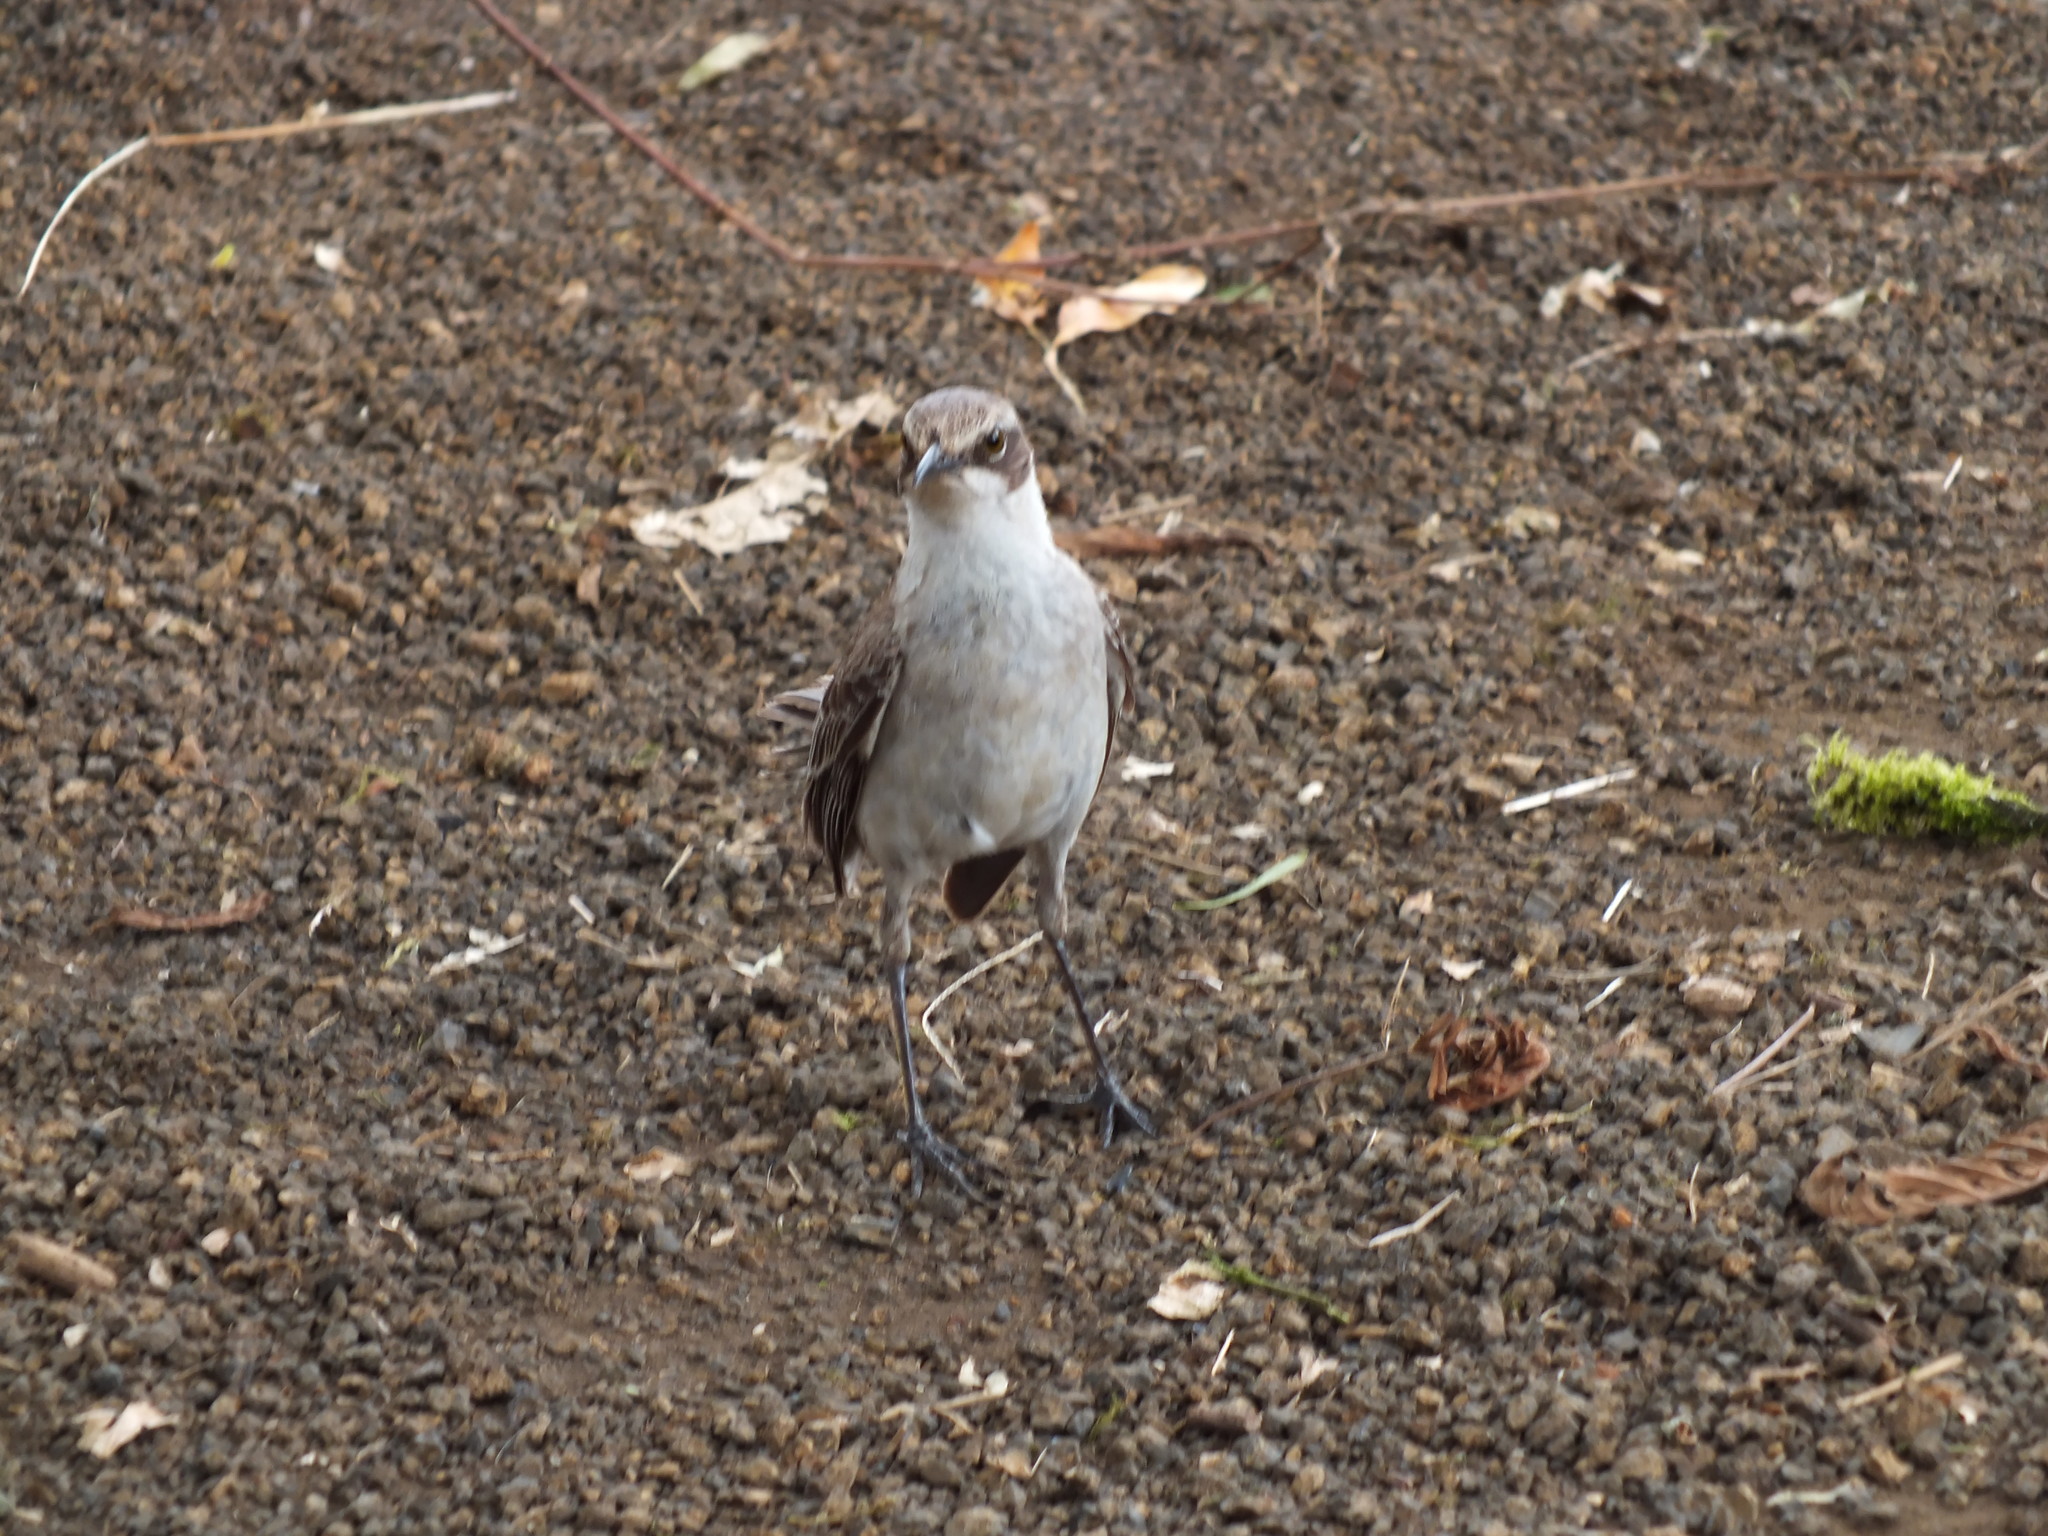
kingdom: Animalia
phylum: Chordata
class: Aves
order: Passeriformes
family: Mimidae
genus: Mimus
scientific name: Mimus parvulus
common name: Galapagos mockingbird
